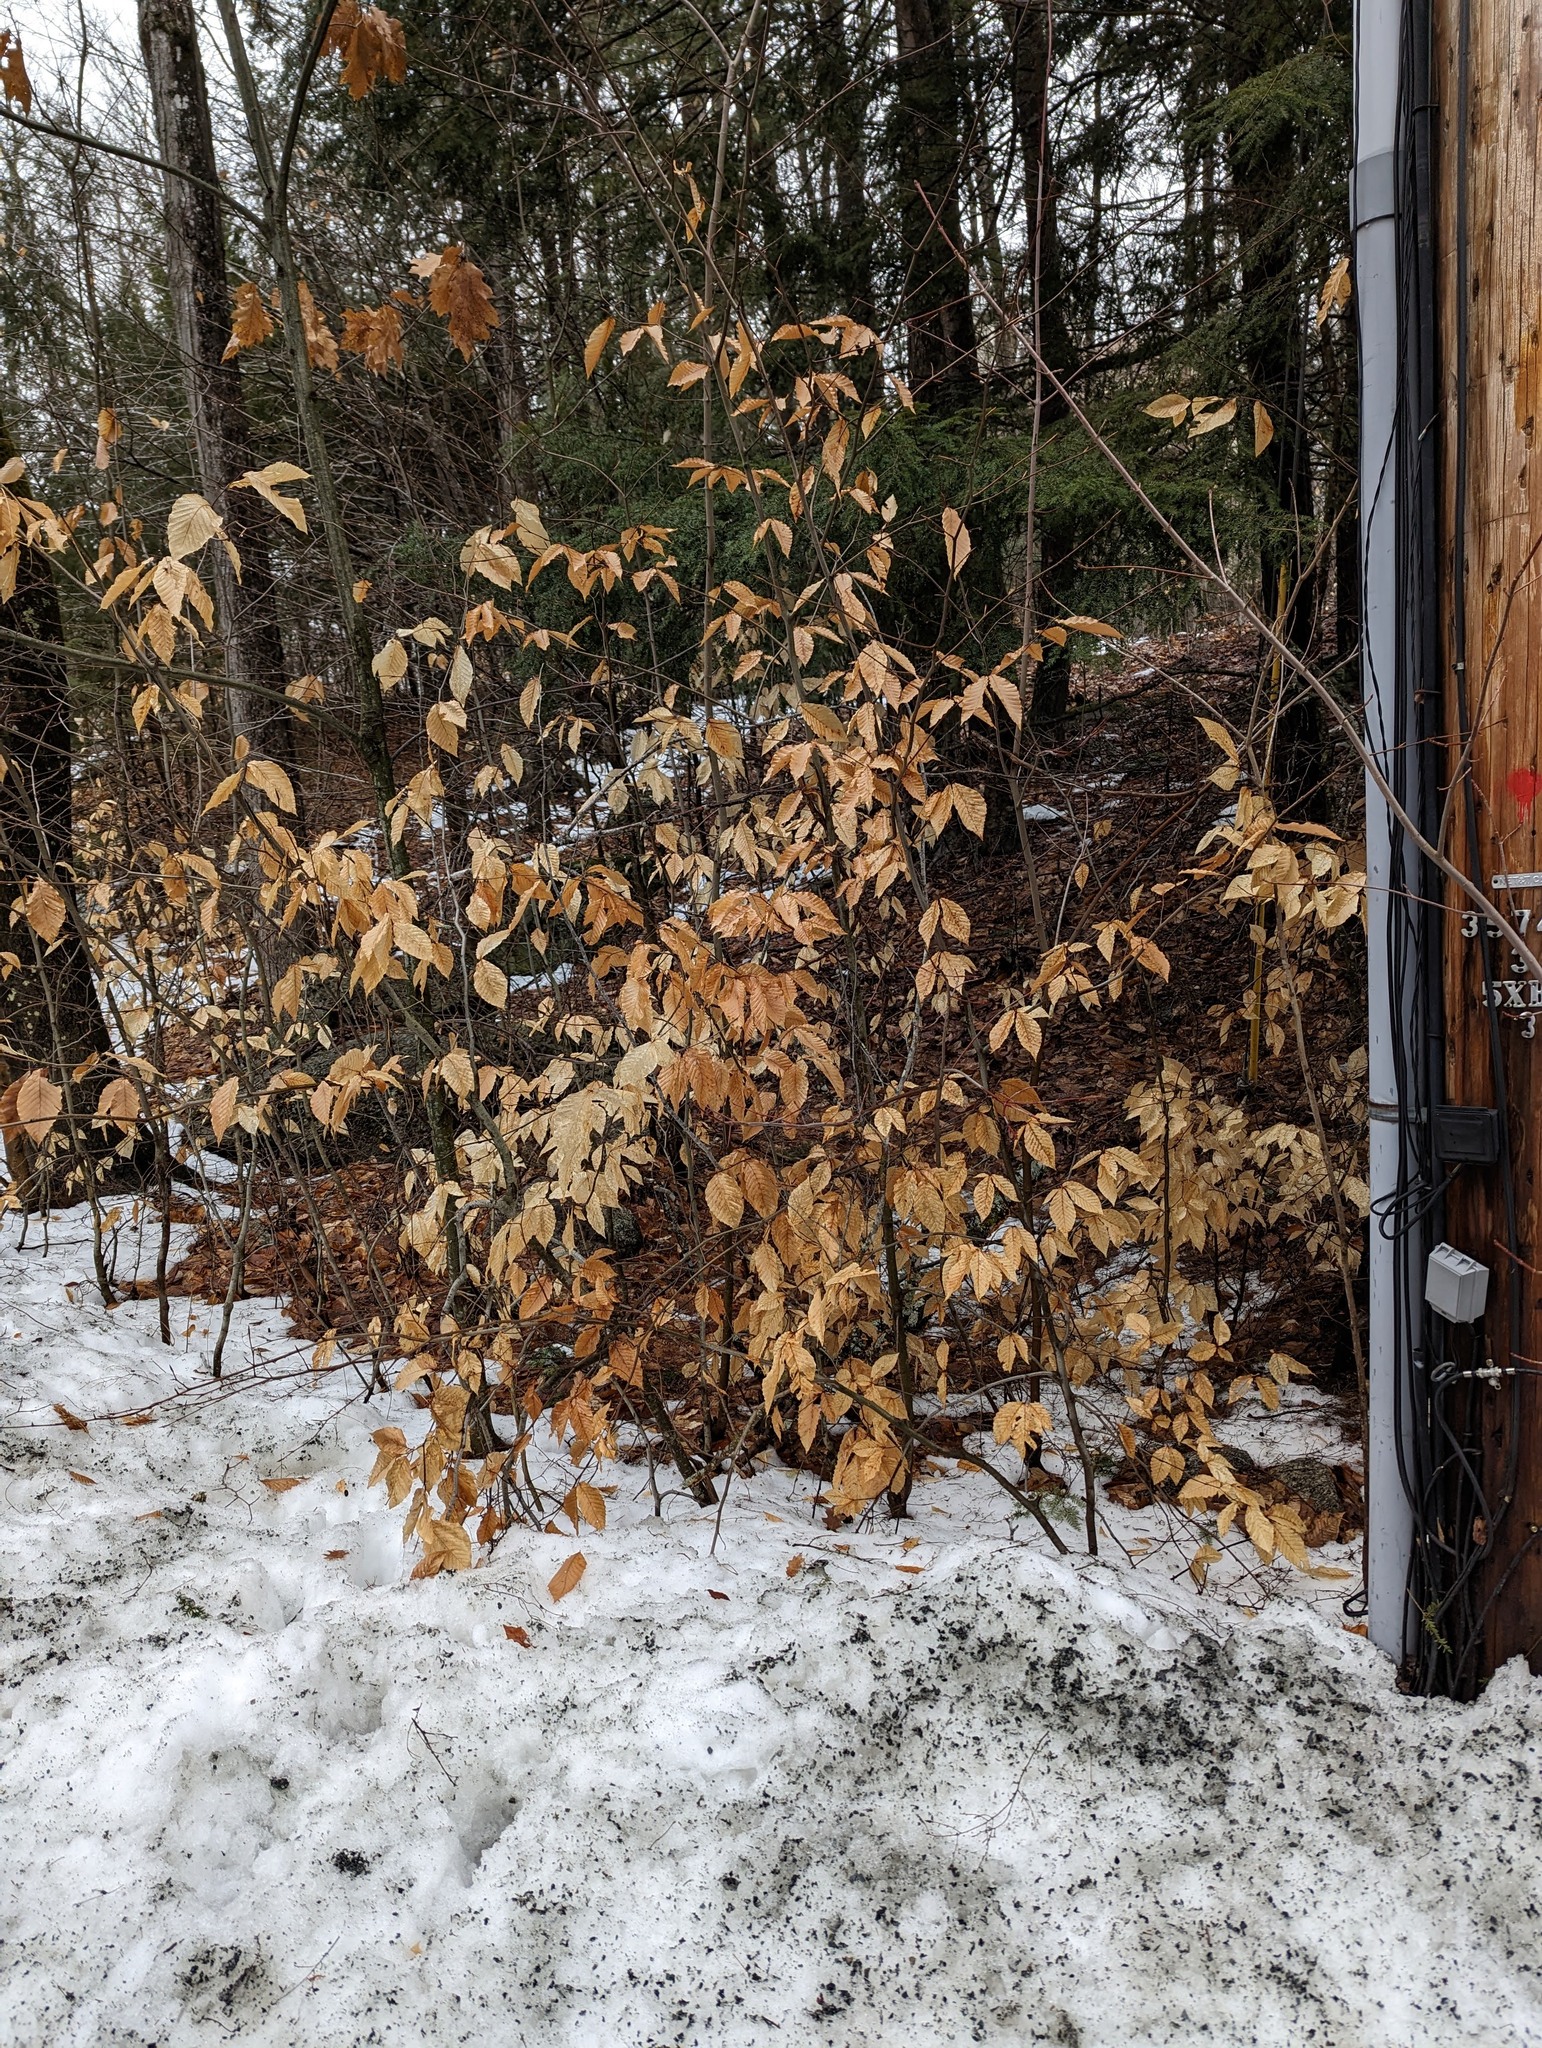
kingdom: Plantae
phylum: Tracheophyta
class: Magnoliopsida
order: Fagales
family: Fagaceae
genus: Fagus
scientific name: Fagus grandifolia
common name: American beech
